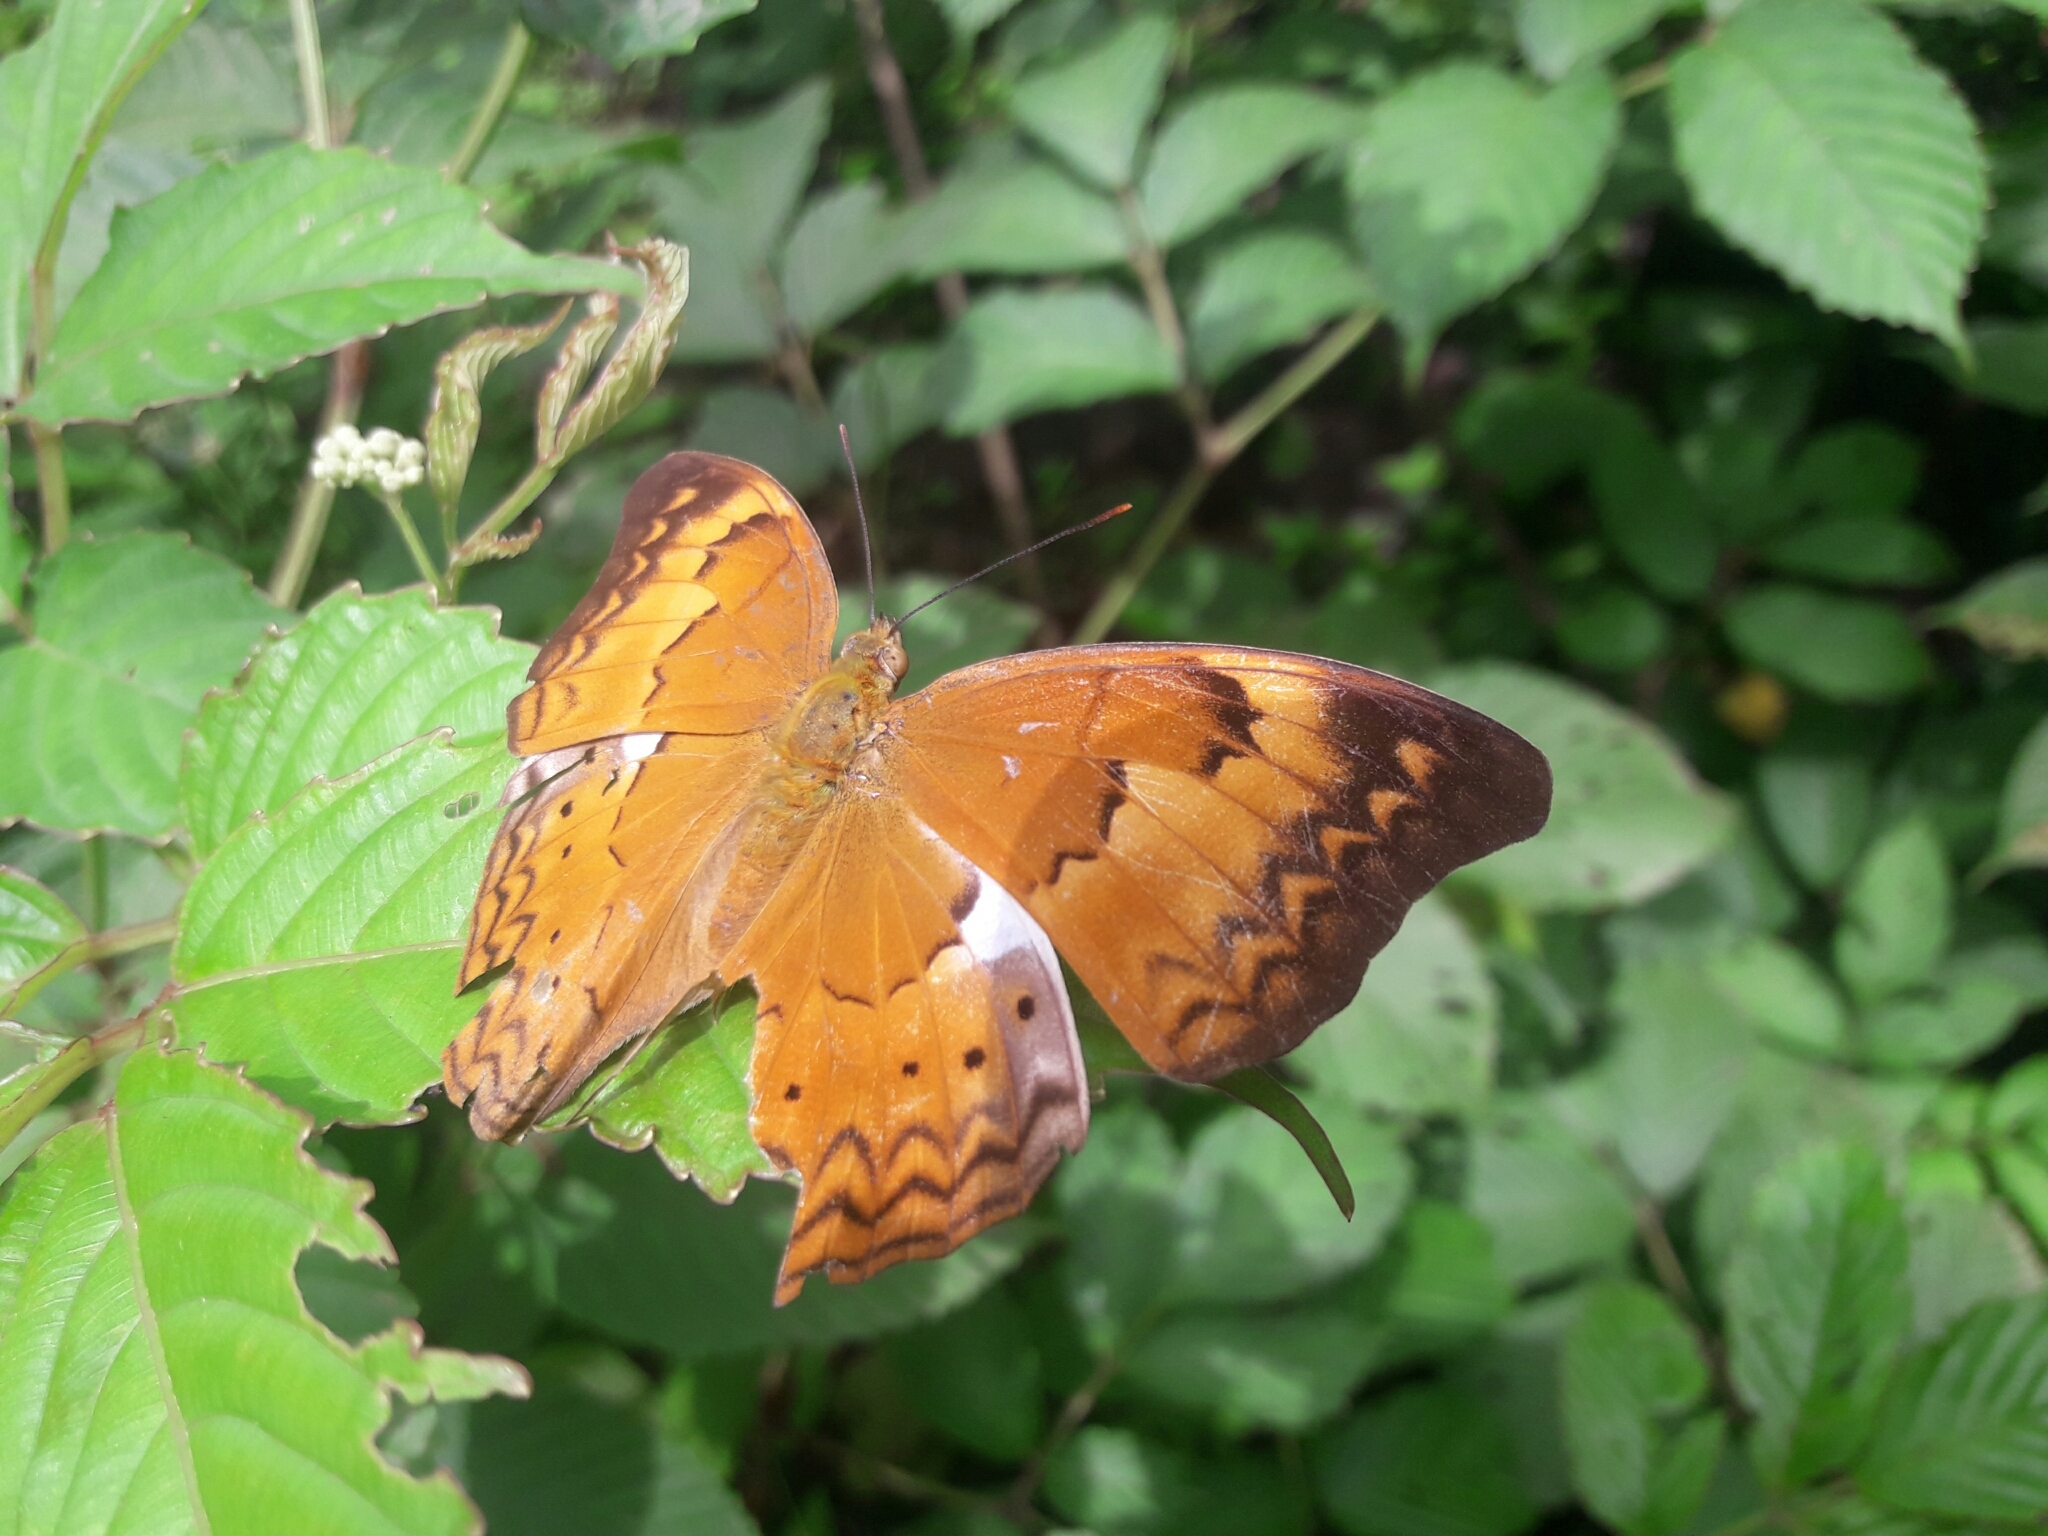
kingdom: Animalia
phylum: Arthropoda
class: Insecta
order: Lepidoptera
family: Nymphalidae
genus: Cirrochroa
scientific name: Cirrochroa thais
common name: Tamil yeoman
